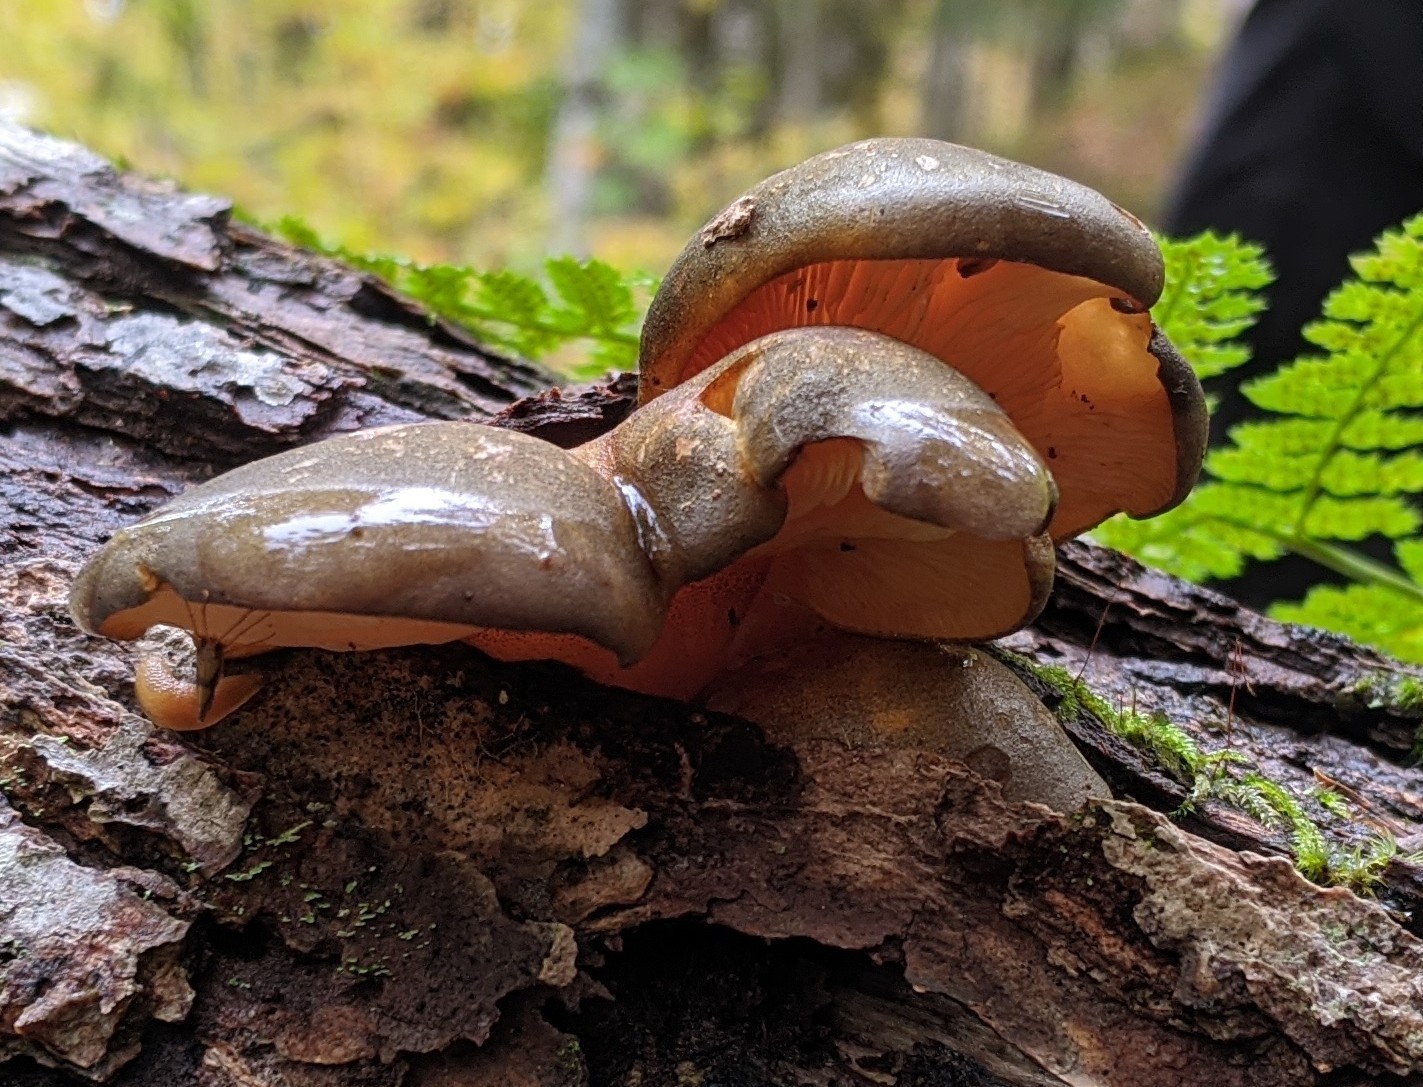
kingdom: Fungi
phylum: Basidiomycota
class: Agaricomycetes
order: Agaricales
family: Sarcomyxaceae
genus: Sarcomyxa
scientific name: Sarcomyxa serotina
